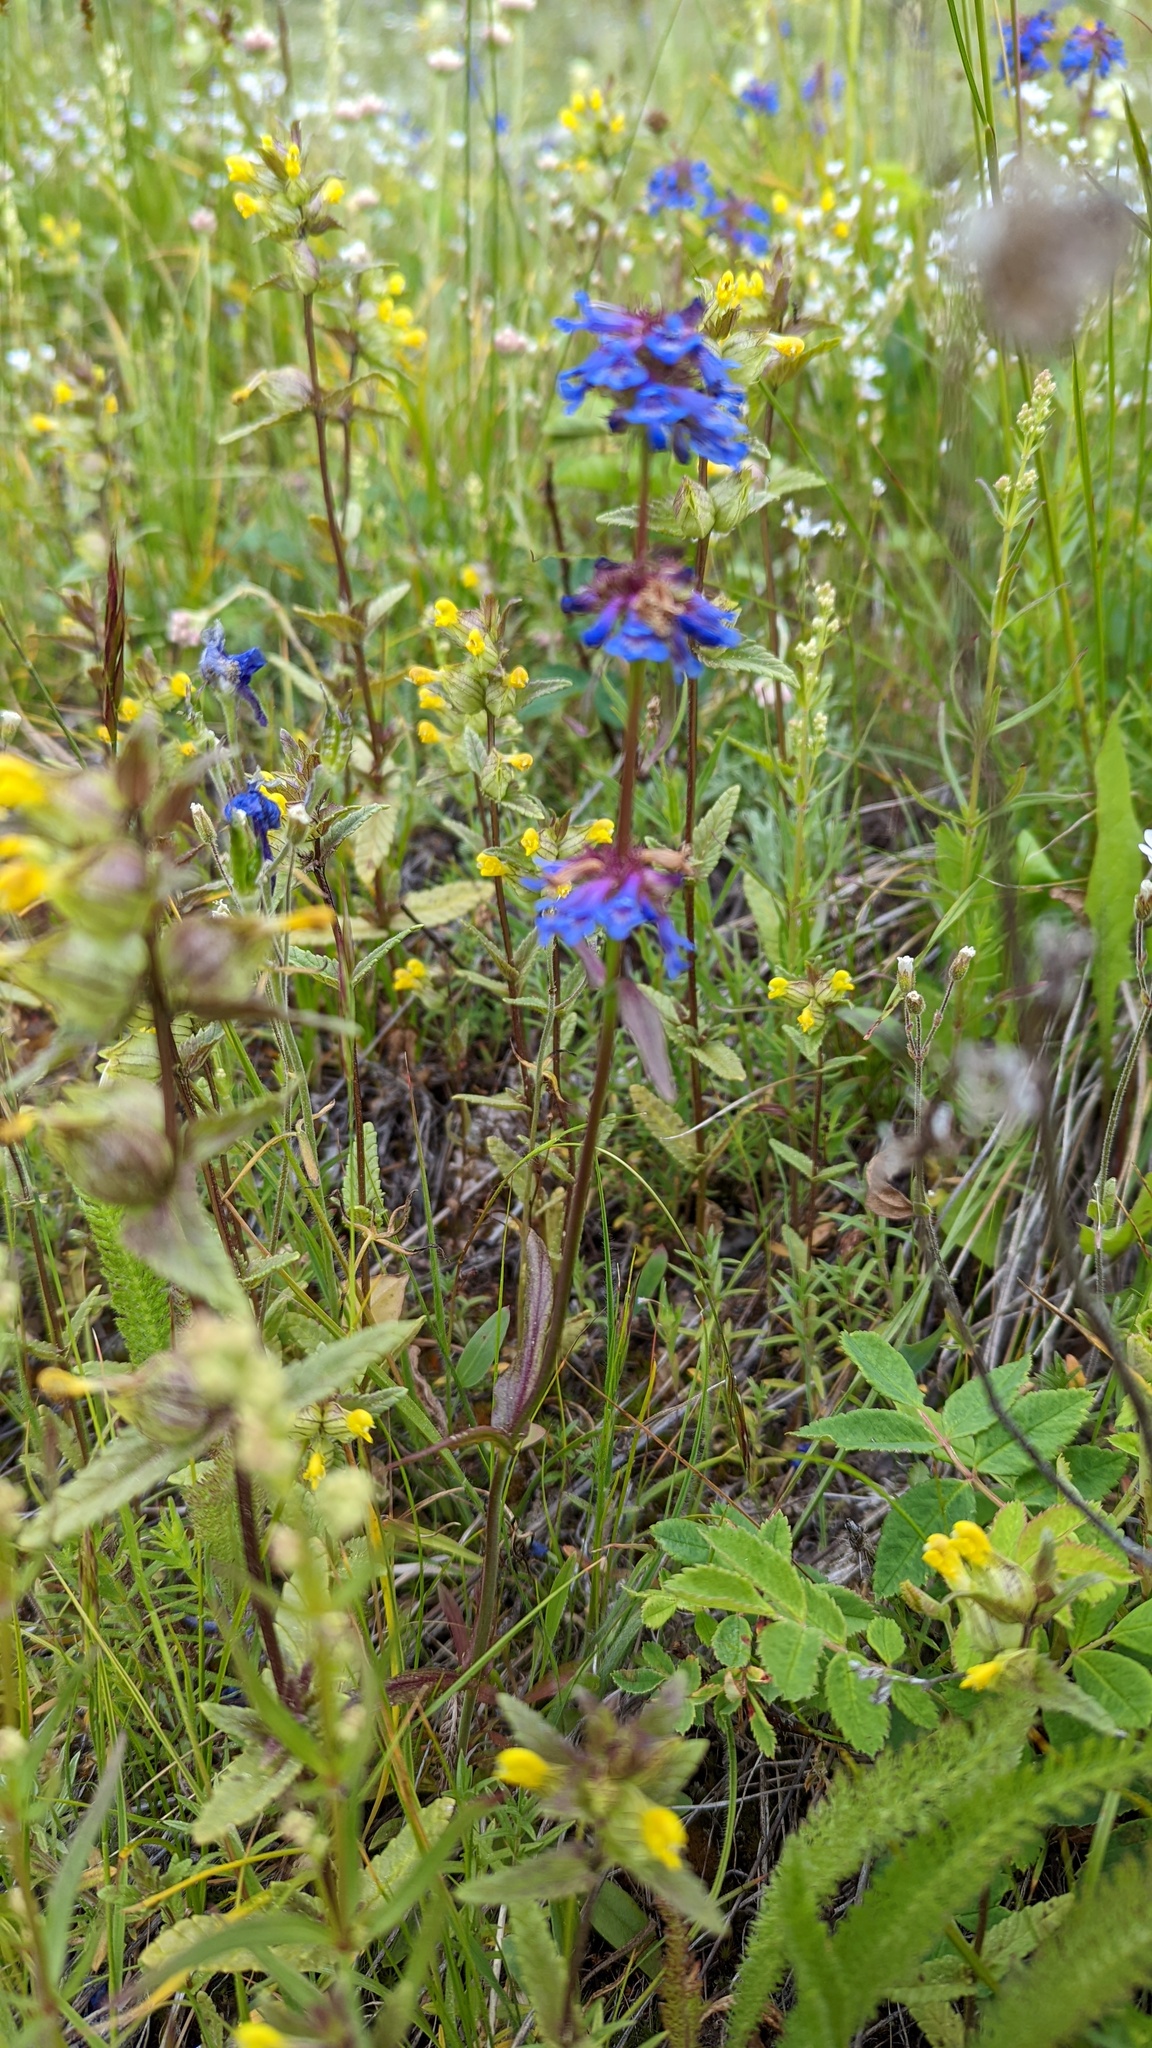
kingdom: Plantae
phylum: Tracheophyta
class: Magnoliopsida
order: Lamiales
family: Plantaginaceae
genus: Penstemon
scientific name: Penstemon procerus
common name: Small-flower penstemon
